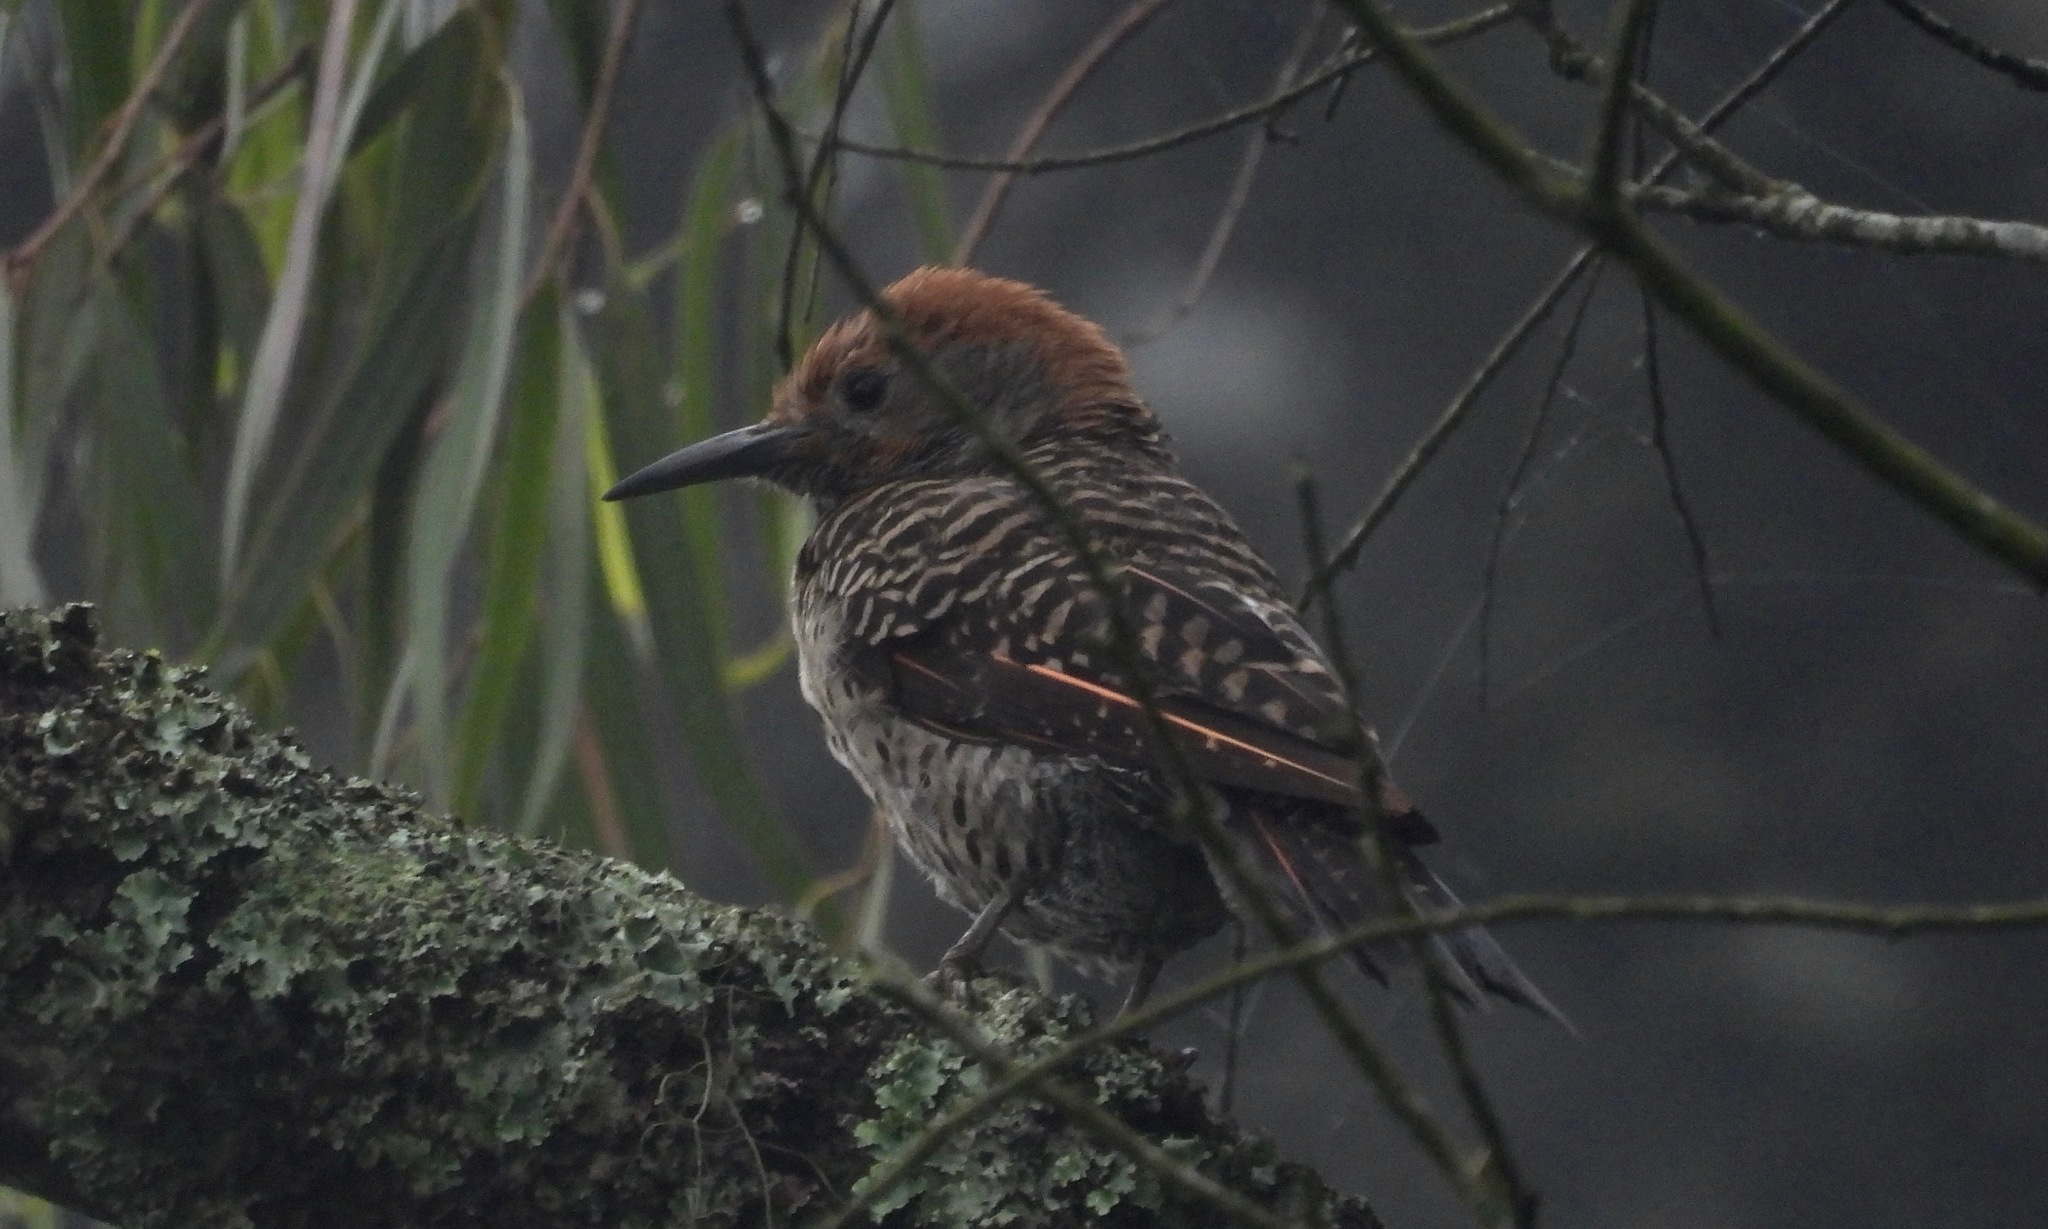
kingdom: Animalia
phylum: Chordata
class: Aves
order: Piciformes
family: Picidae
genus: Colaptes
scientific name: Colaptes auratus
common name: Northern flicker
